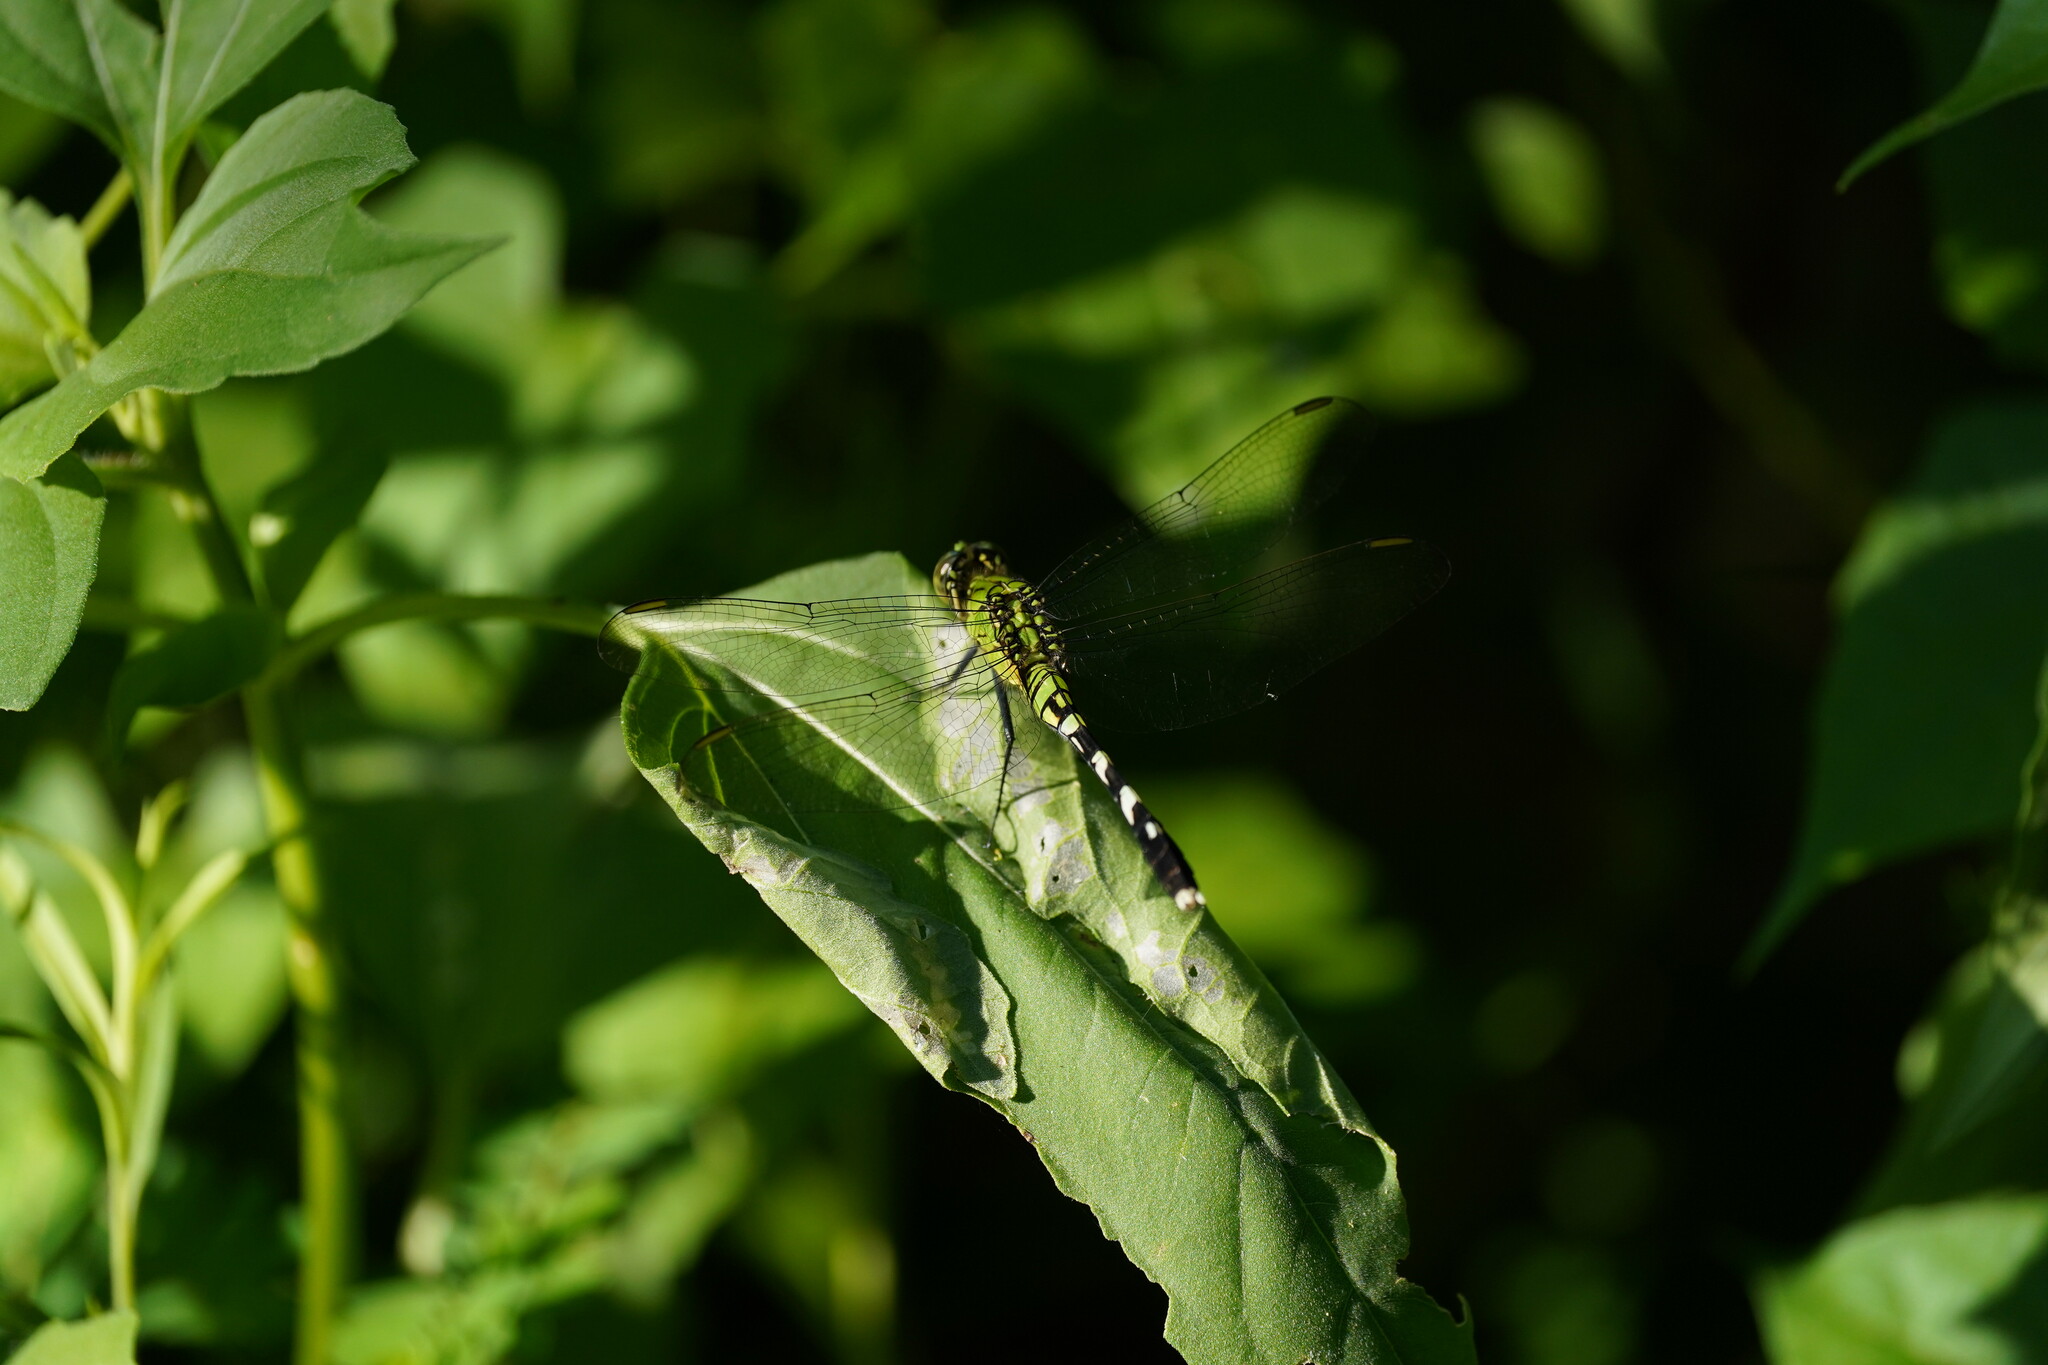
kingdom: Animalia
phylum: Arthropoda
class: Insecta
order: Odonata
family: Libellulidae
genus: Erythemis
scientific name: Erythemis simplicicollis
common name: Eastern pondhawk
